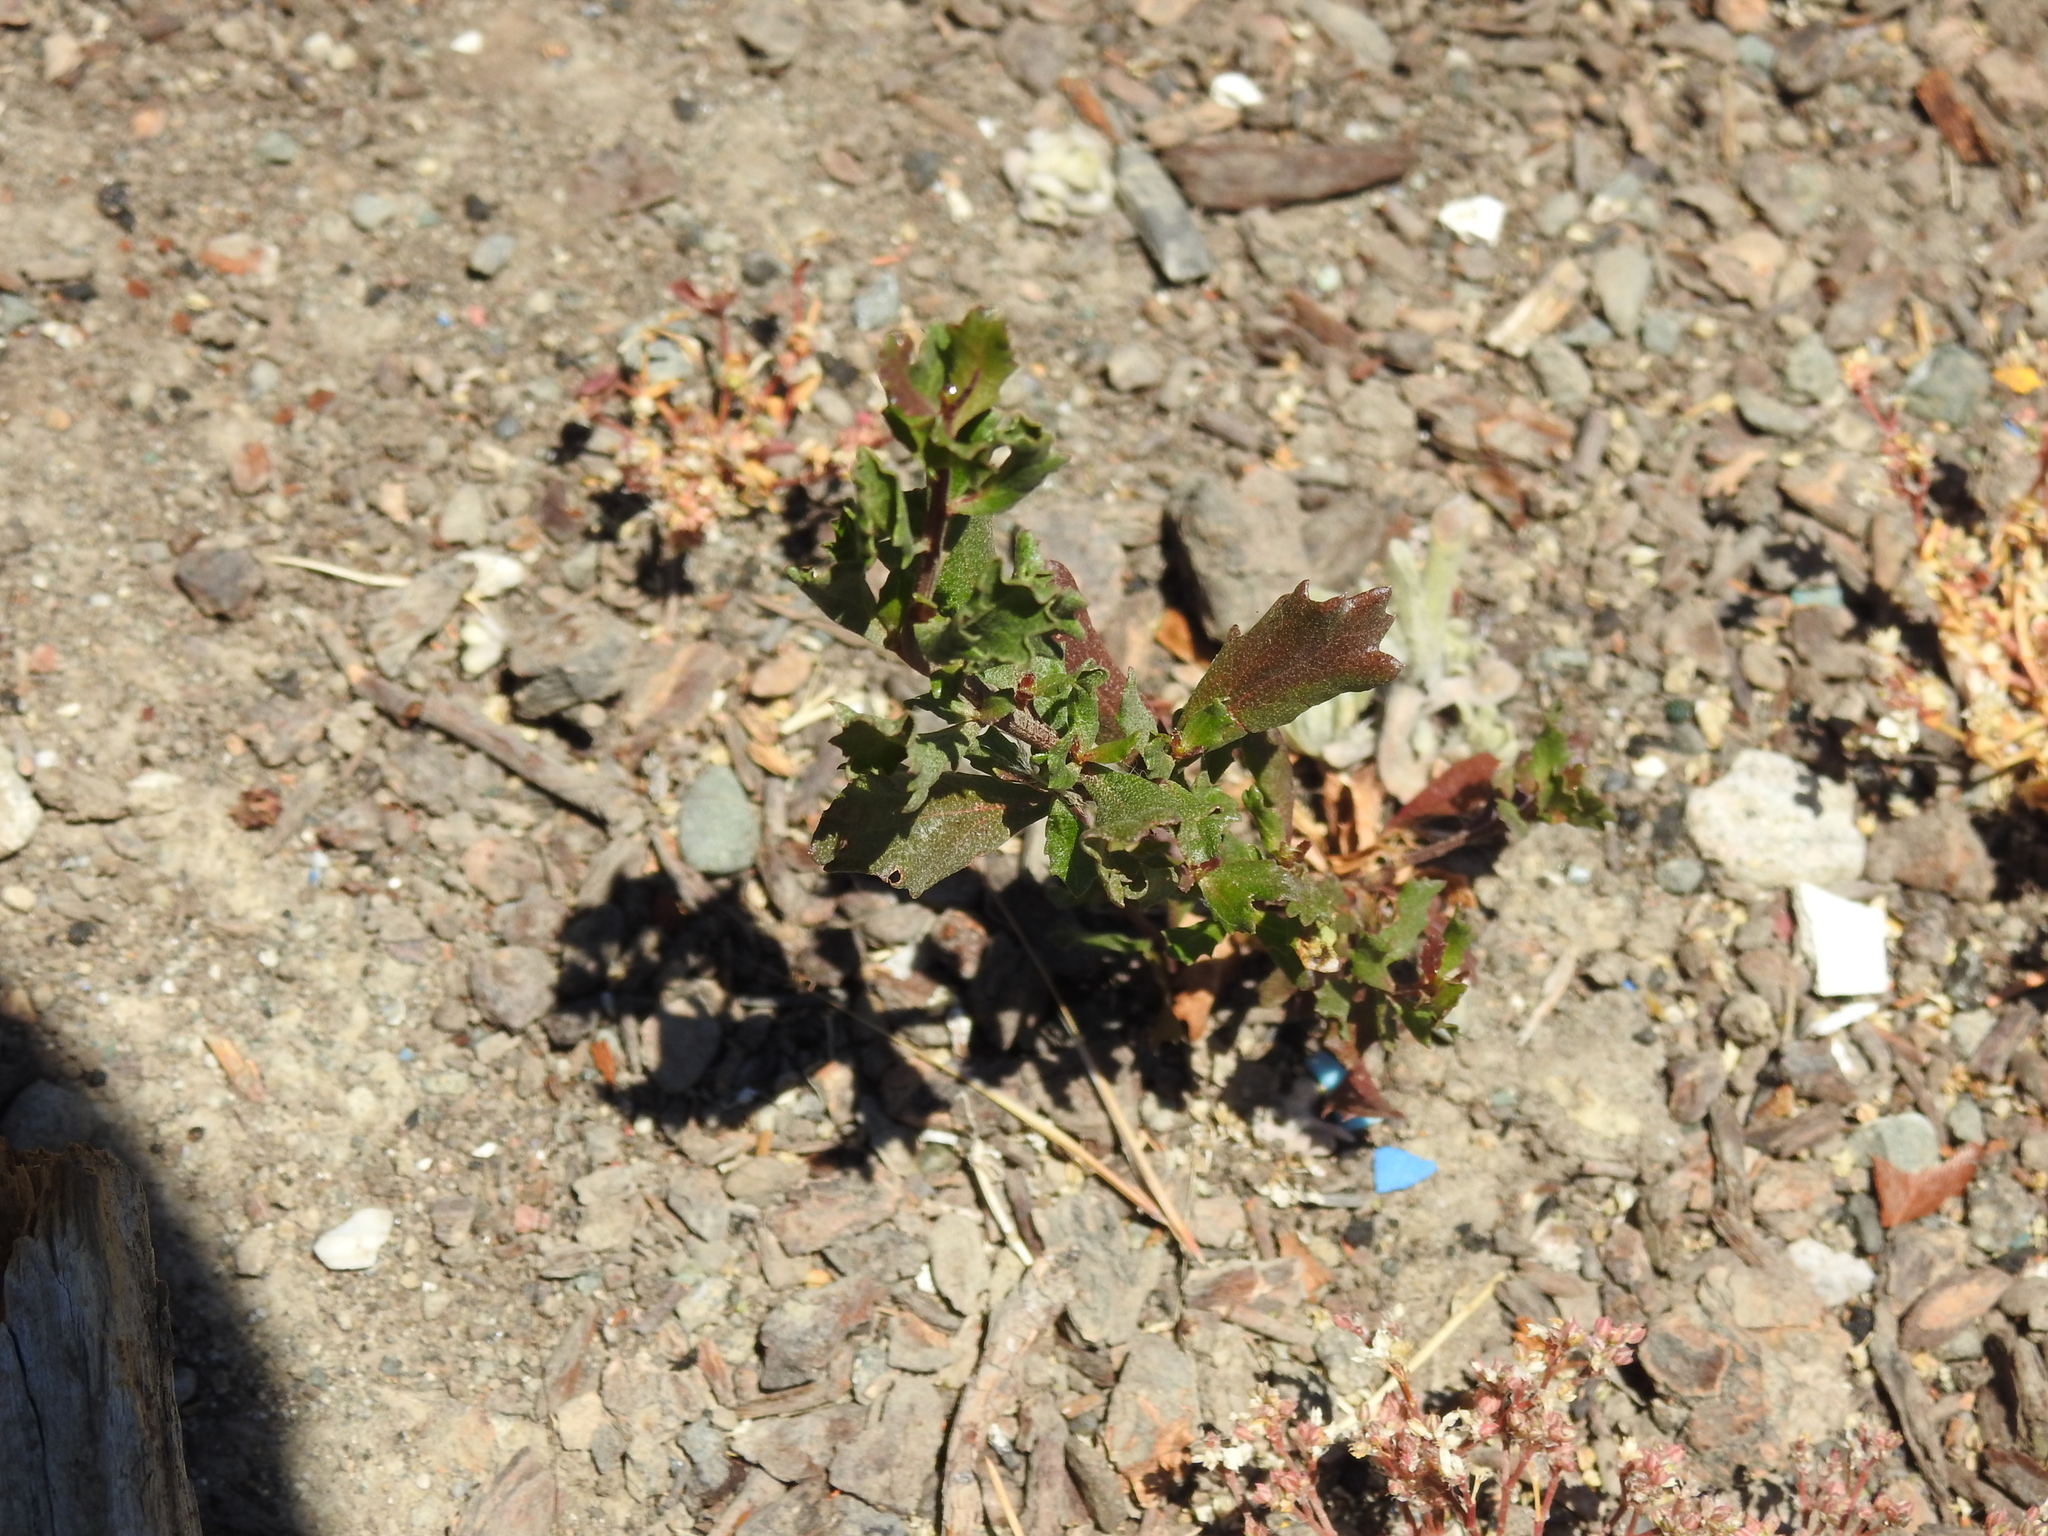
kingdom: Plantae
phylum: Tracheophyta
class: Magnoliopsida
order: Asterales
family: Asteraceae
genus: Baccharis
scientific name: Baccharis pilularis
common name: Coyotebrush
